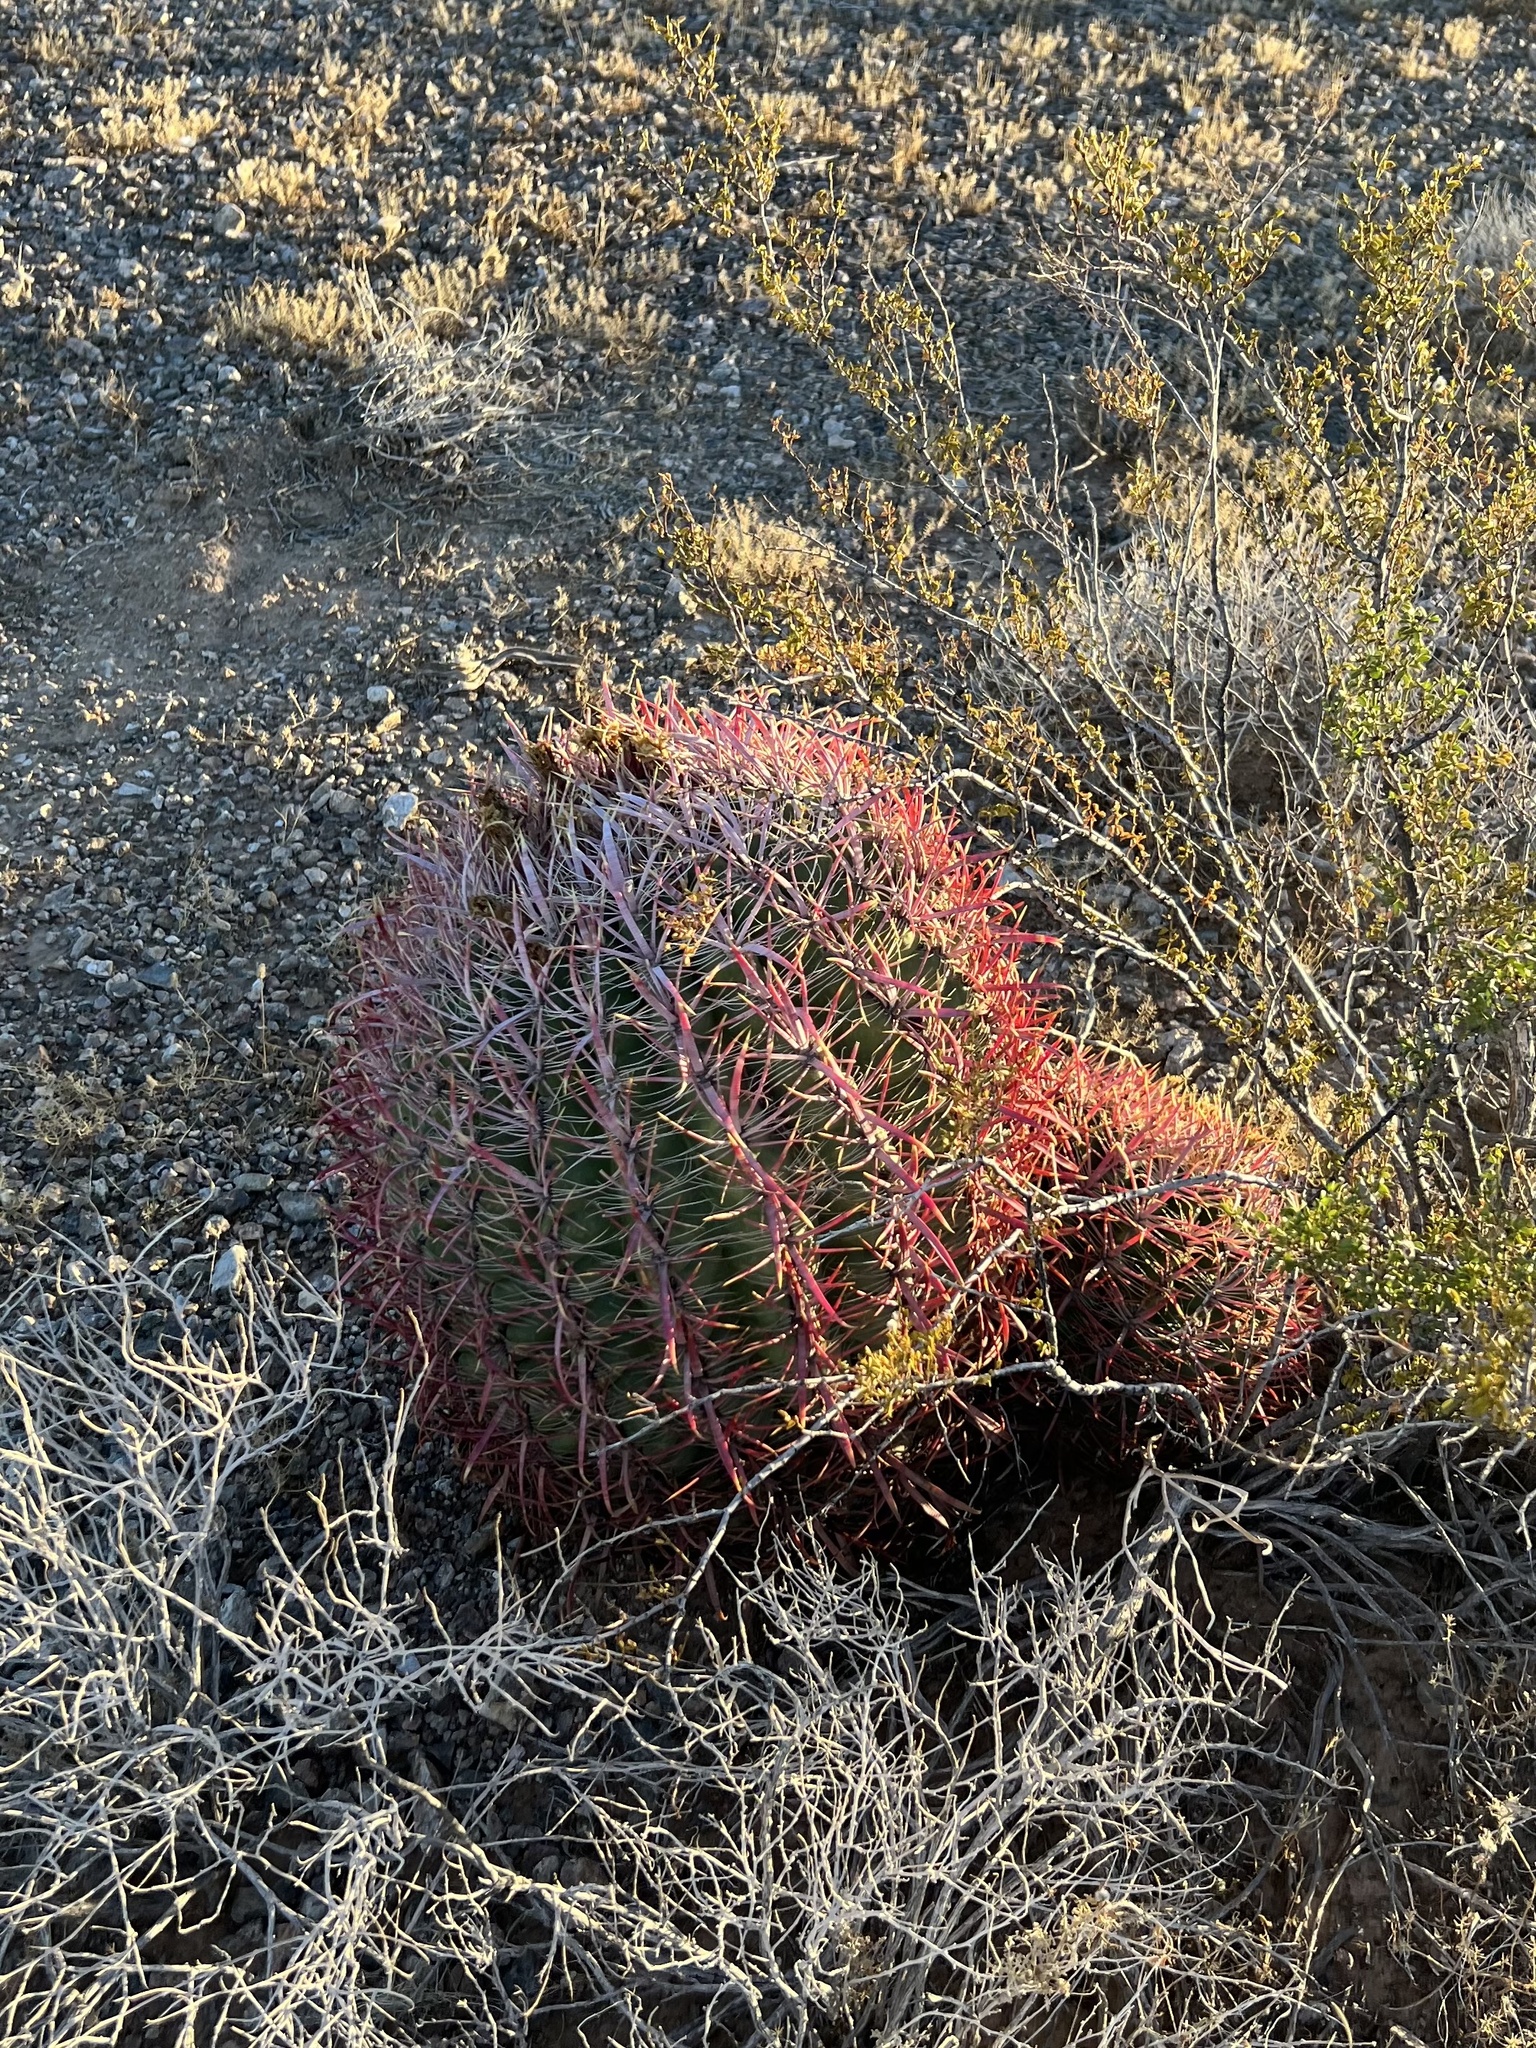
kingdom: Plantae
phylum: Tracheophyta
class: Magnoliopsida
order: Caryophyllales
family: Cactaceae
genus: Ferocactus
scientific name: Ferocactus cylindraceus
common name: California barrel cactus
